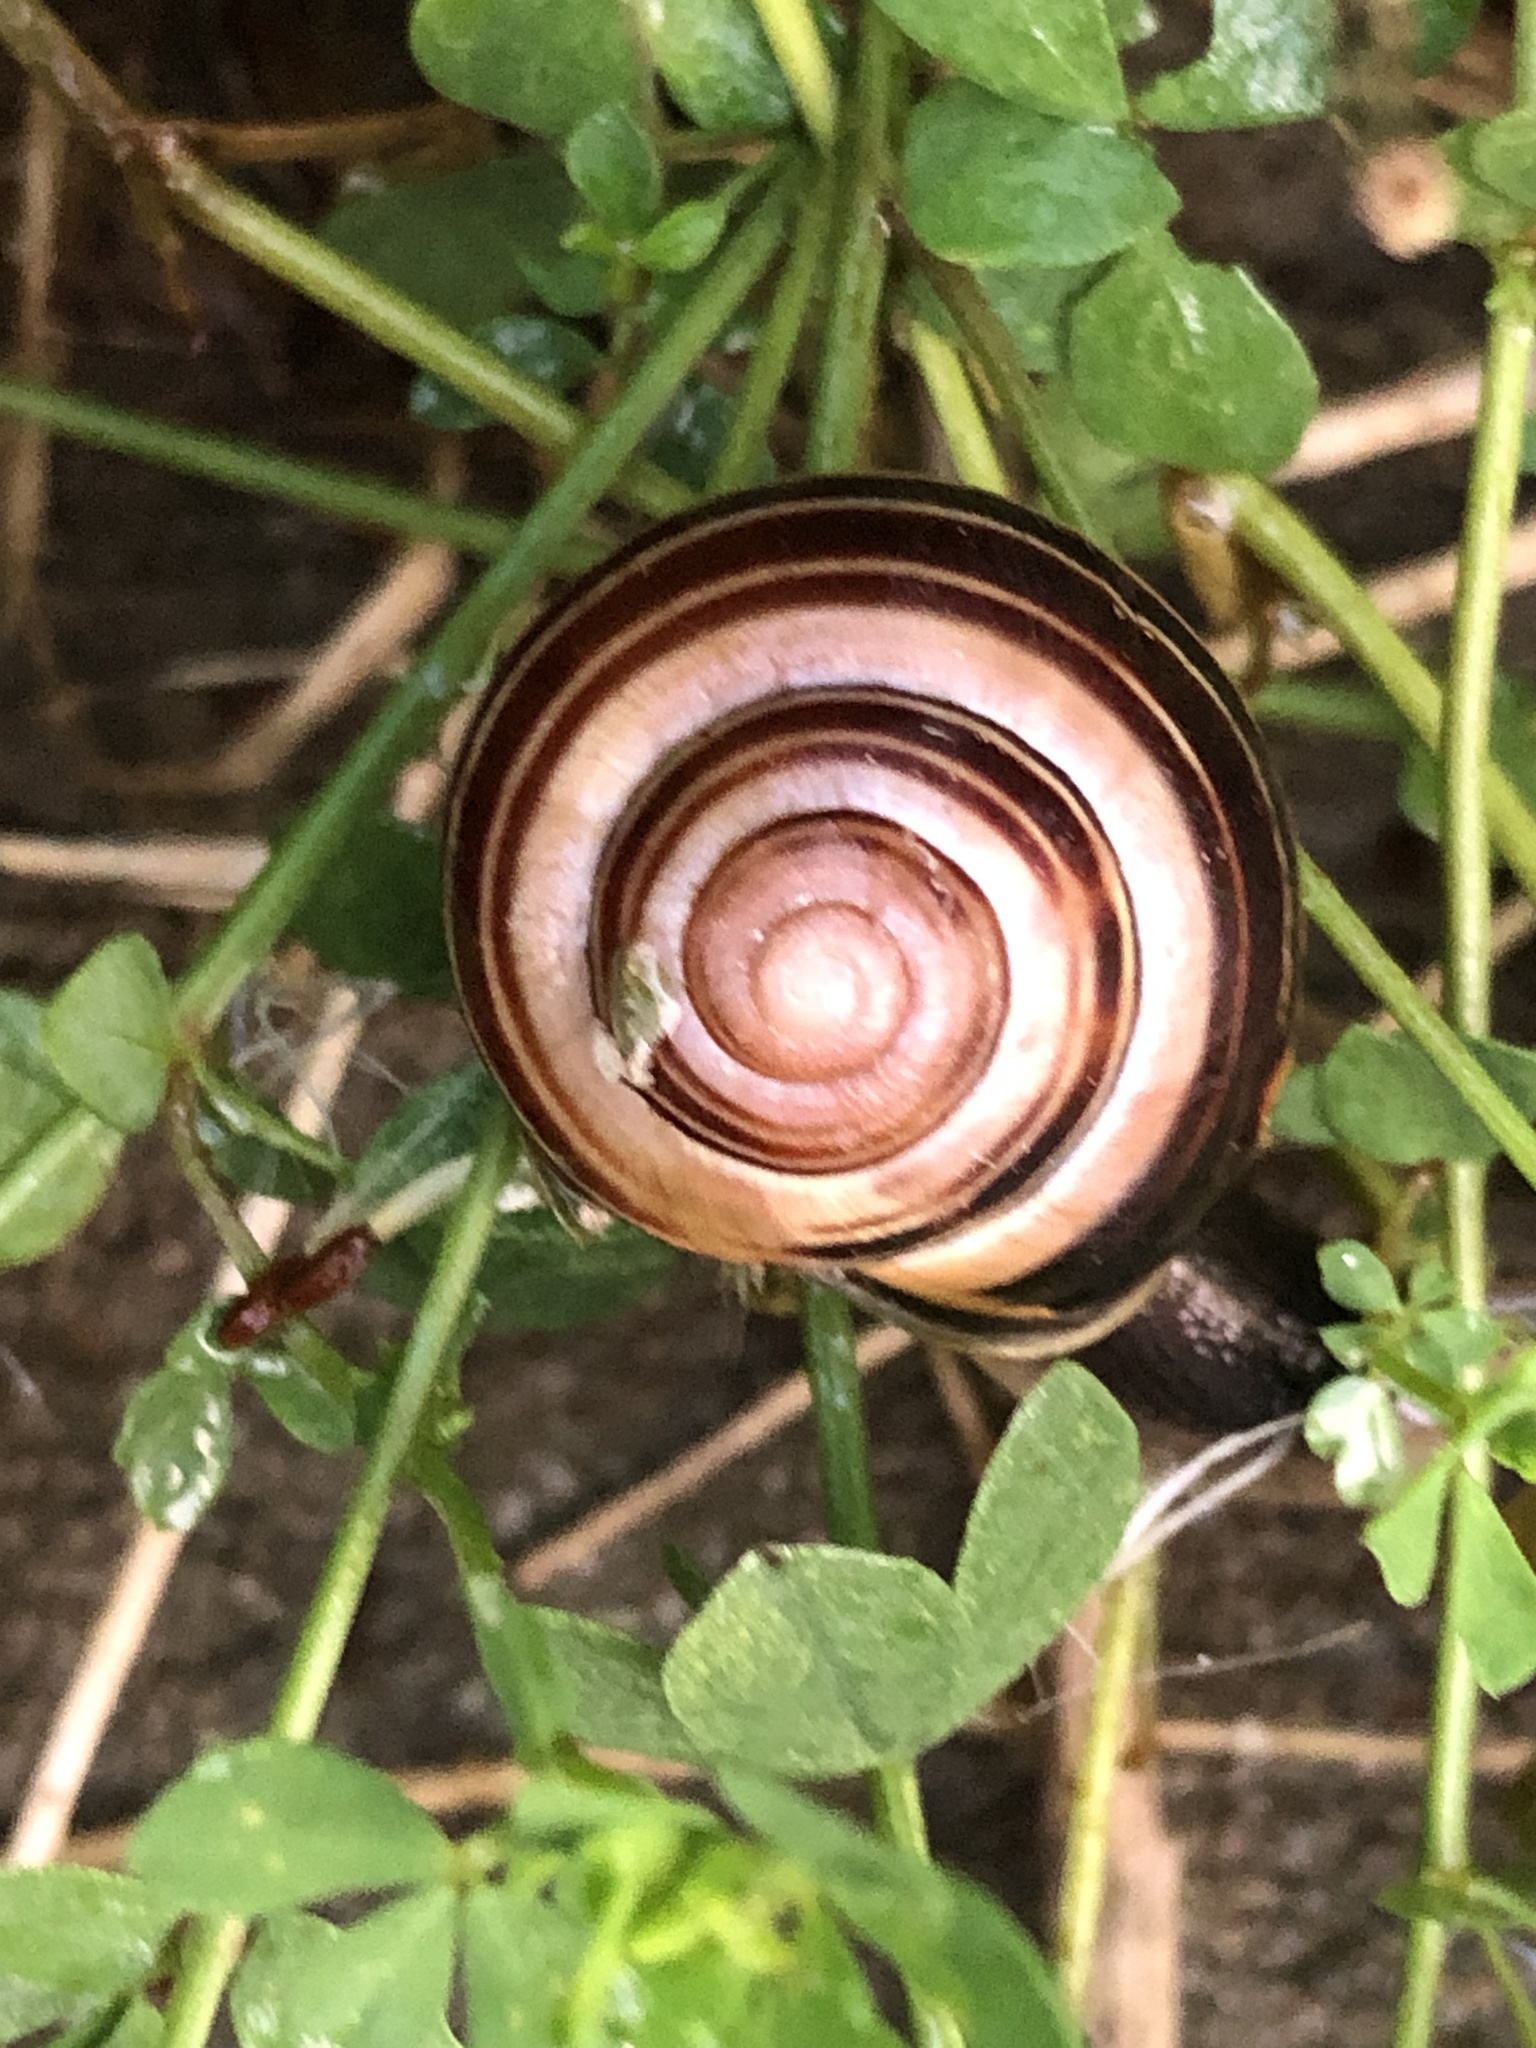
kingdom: Animalia
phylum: Mollusca
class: Gastropoda
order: Stylommatophora
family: Helicidae
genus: Cepaea
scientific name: Cepaea nemoralis
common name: Grovesnail
